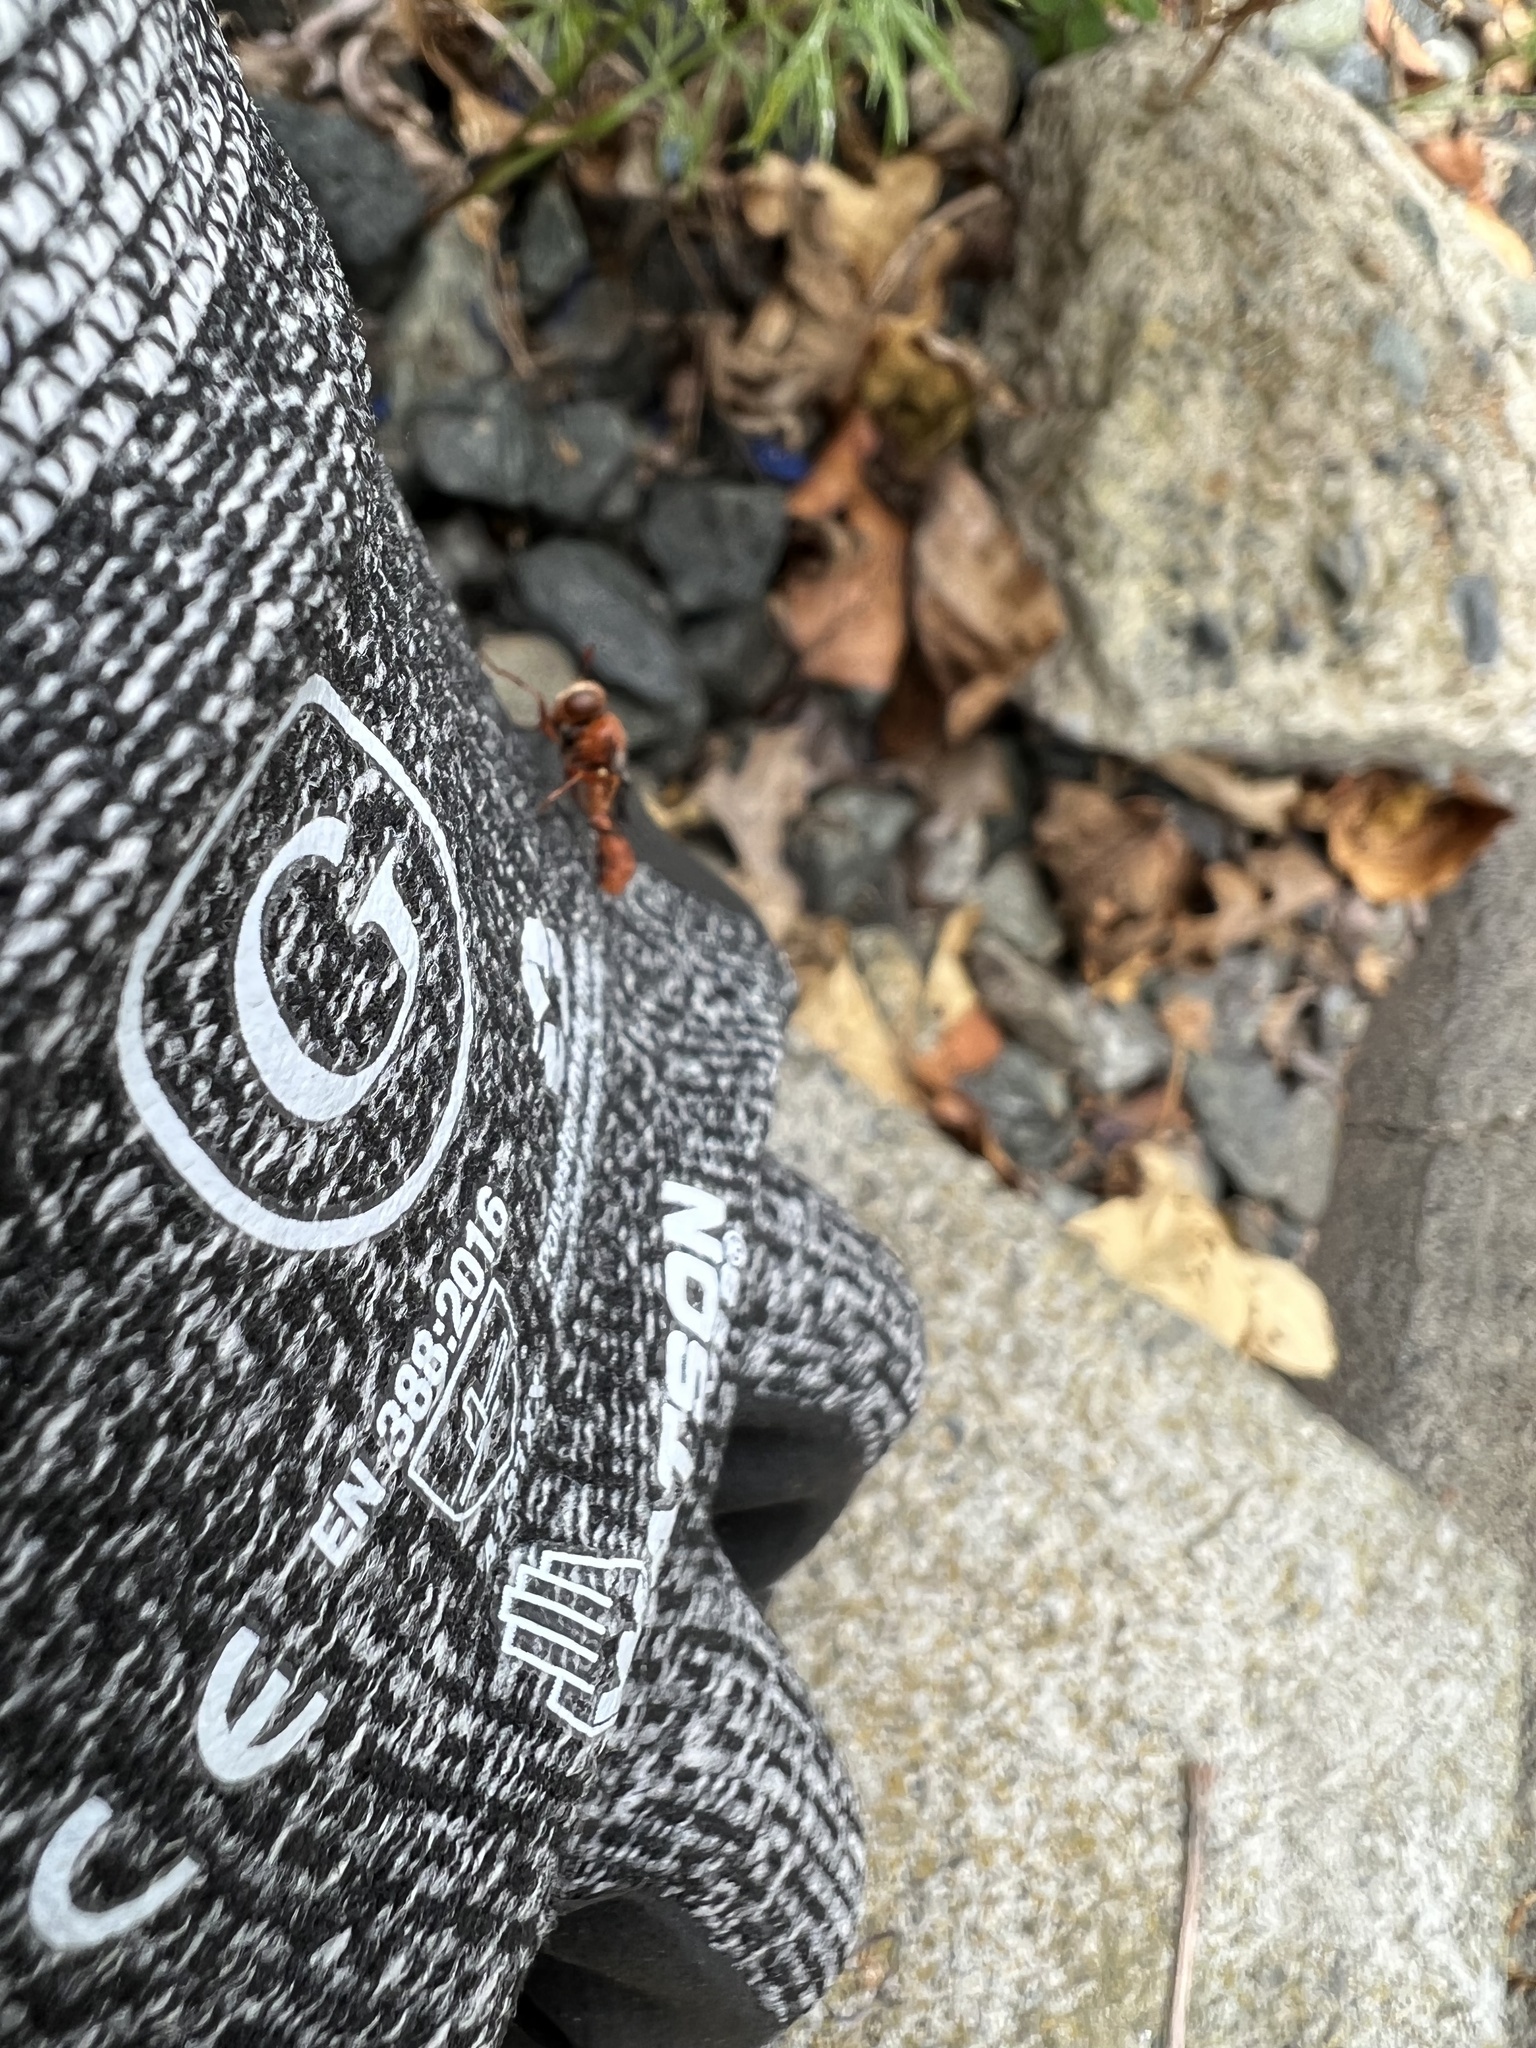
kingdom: Animalia
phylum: Arthropoda
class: Insecta
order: Diptera
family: Conopidae
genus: Physocephala
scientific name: Physocephala
